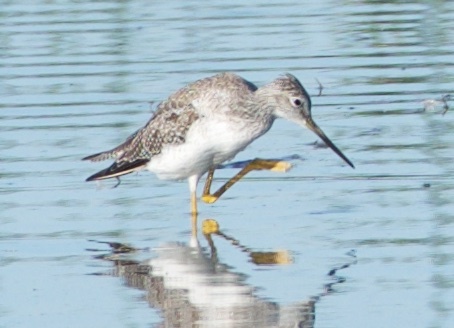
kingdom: Animalia
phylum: Chordata
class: Aves
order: Charadriiformes
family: Scolopacidae
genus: Tringa
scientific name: Tringa melanoleuca
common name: Greater yellowlegs
